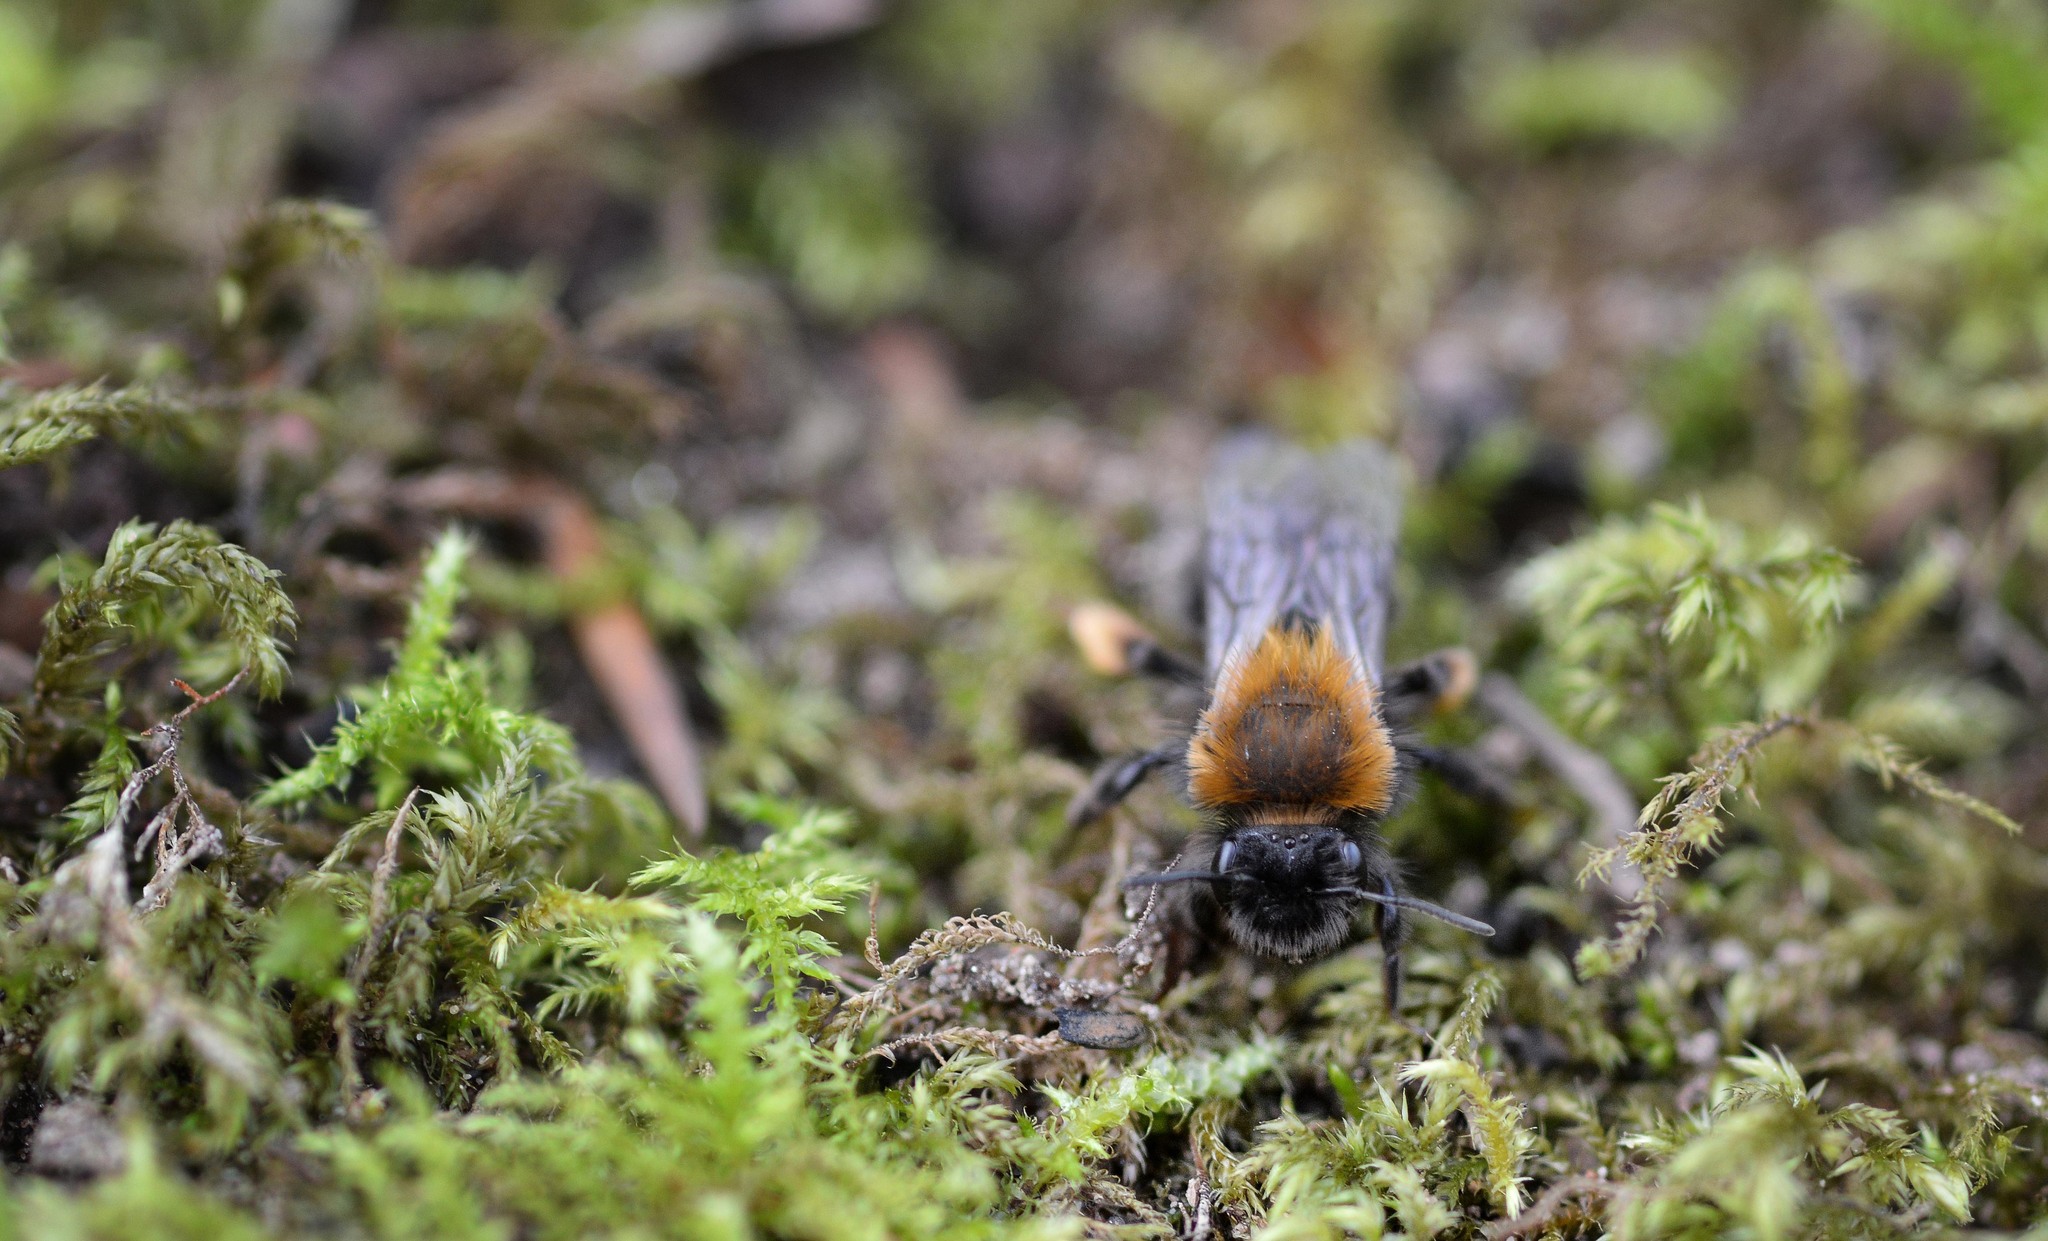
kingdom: Animalia
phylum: Arthropoda
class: Insecta
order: Hymenoptera
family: Andrenidae
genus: Andrena
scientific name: Andrena clarkella
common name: Clarke's mining bee
